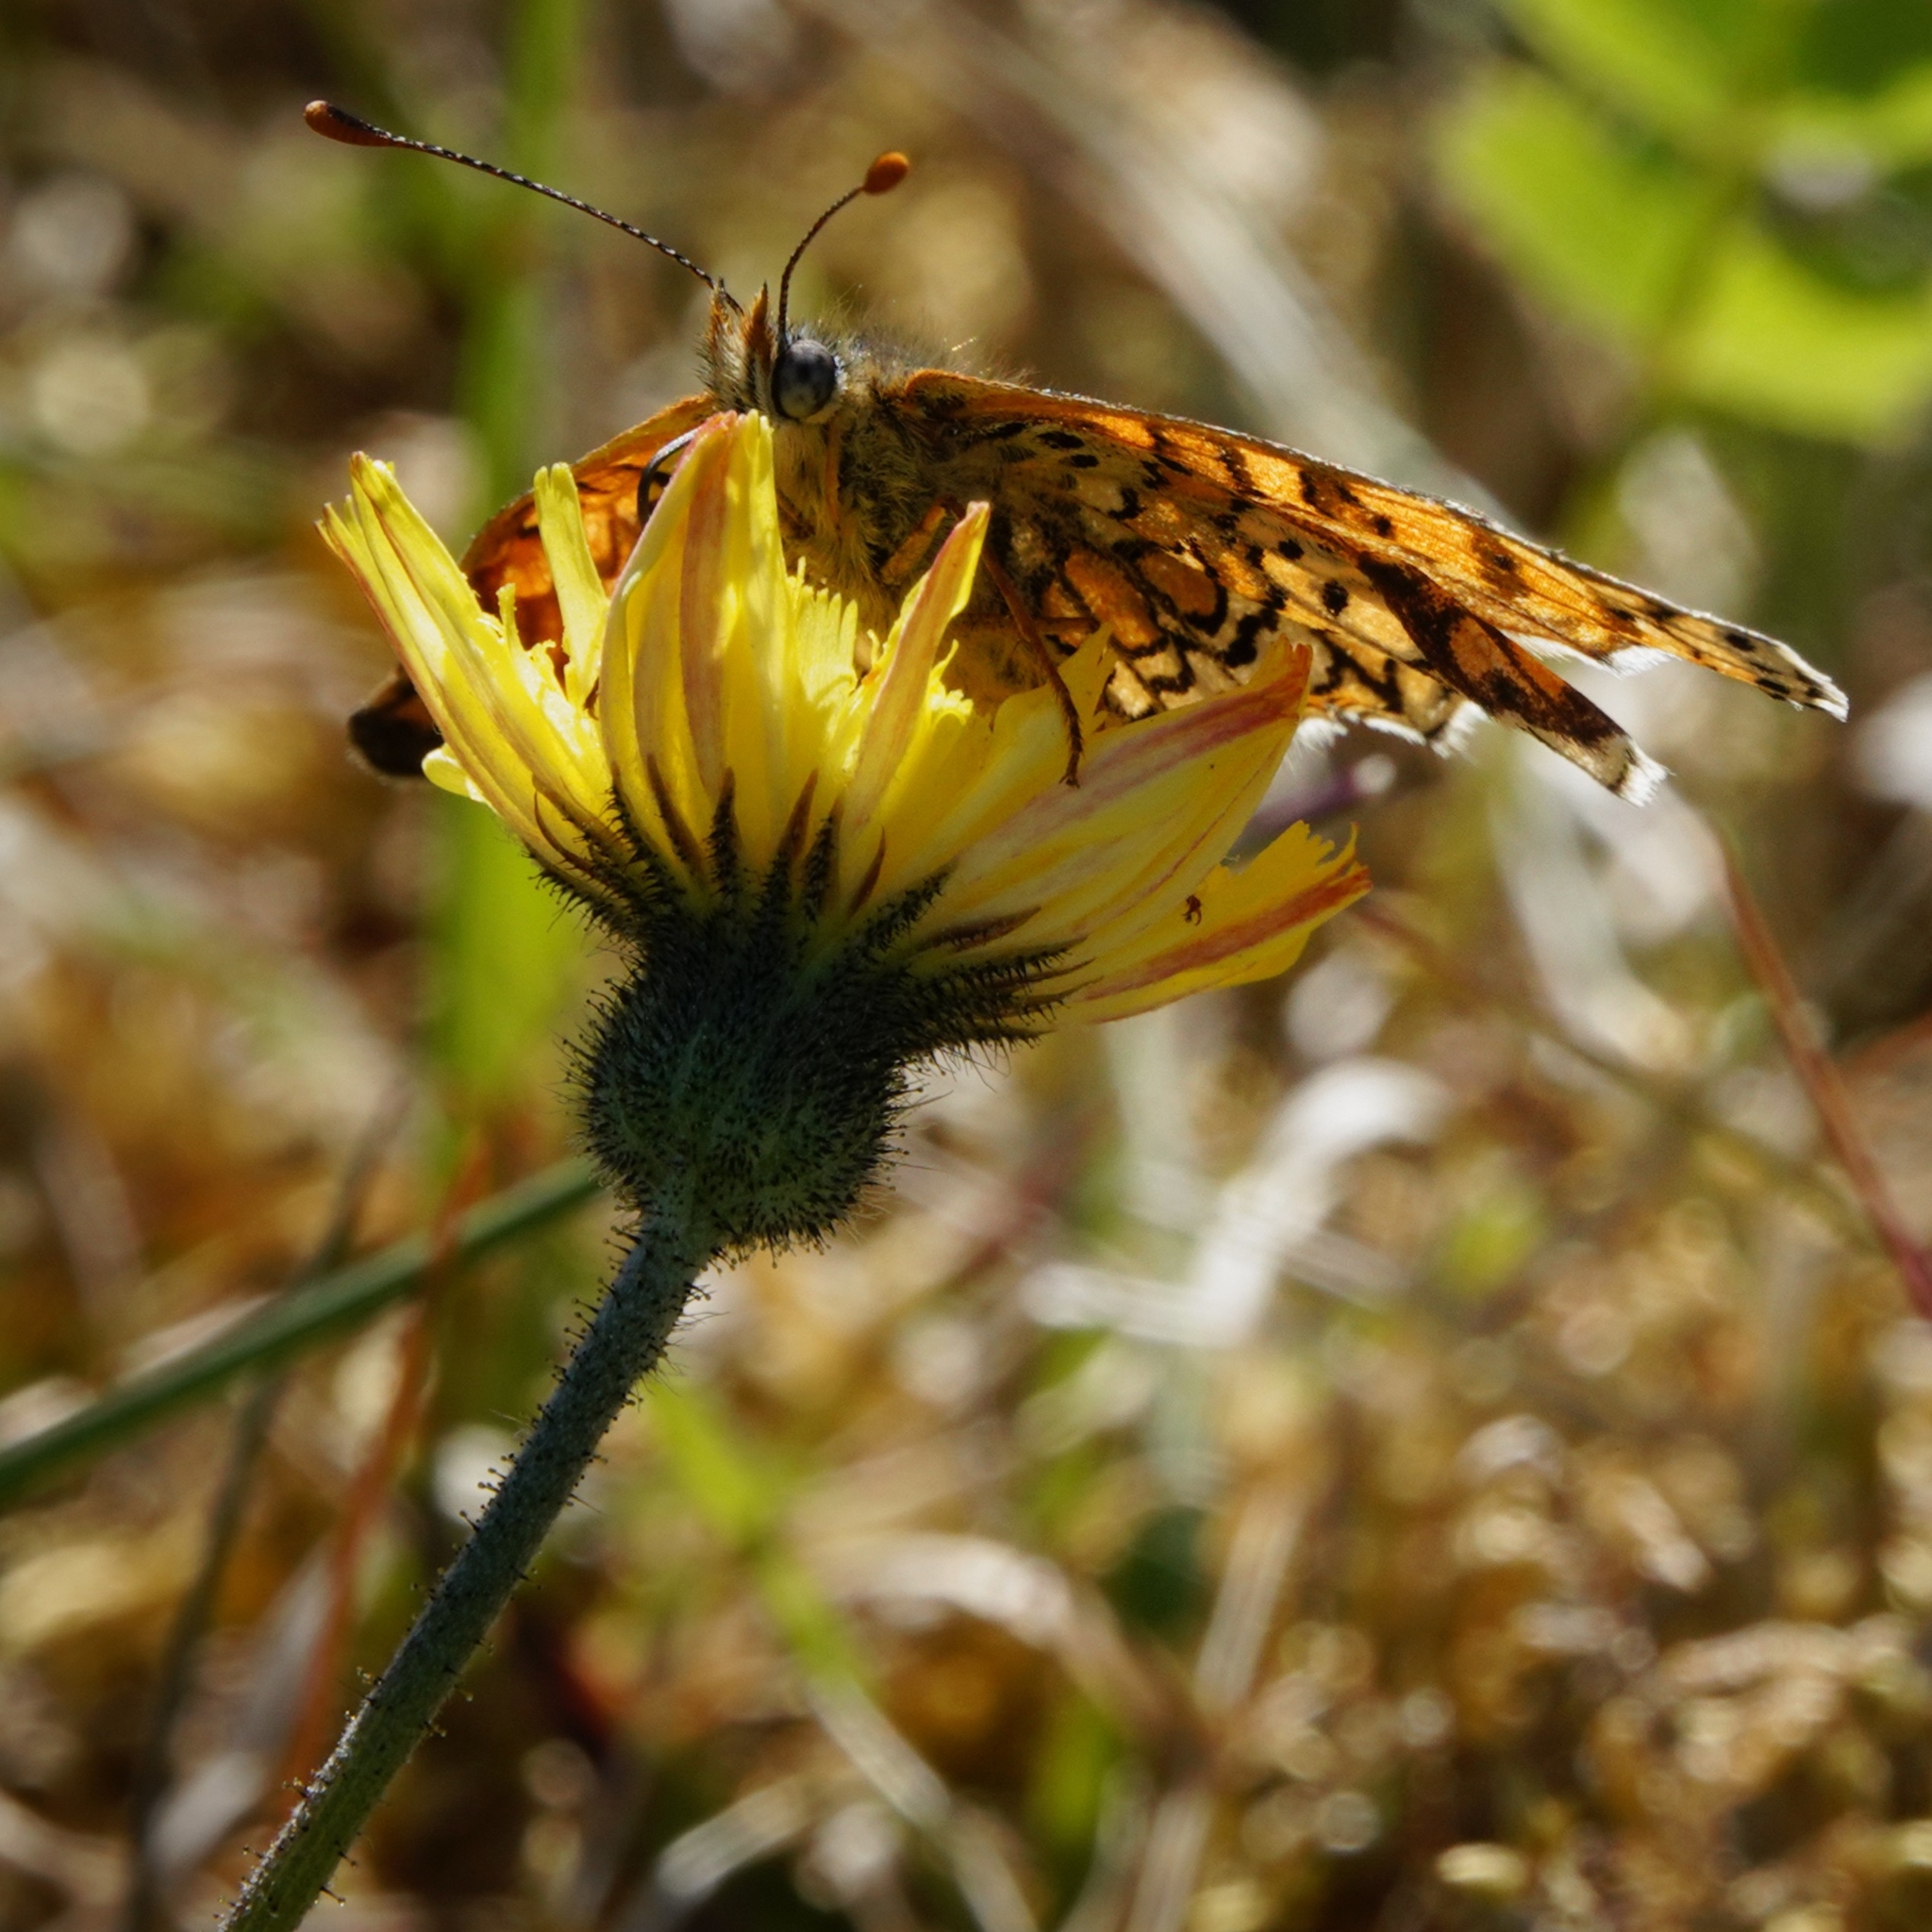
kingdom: Animalia
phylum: Arthropoda
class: Insecta
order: Lepidoptera
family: Nymphalidae
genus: Melitaea
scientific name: Melitaea cinxia
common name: Glanville fritillary
